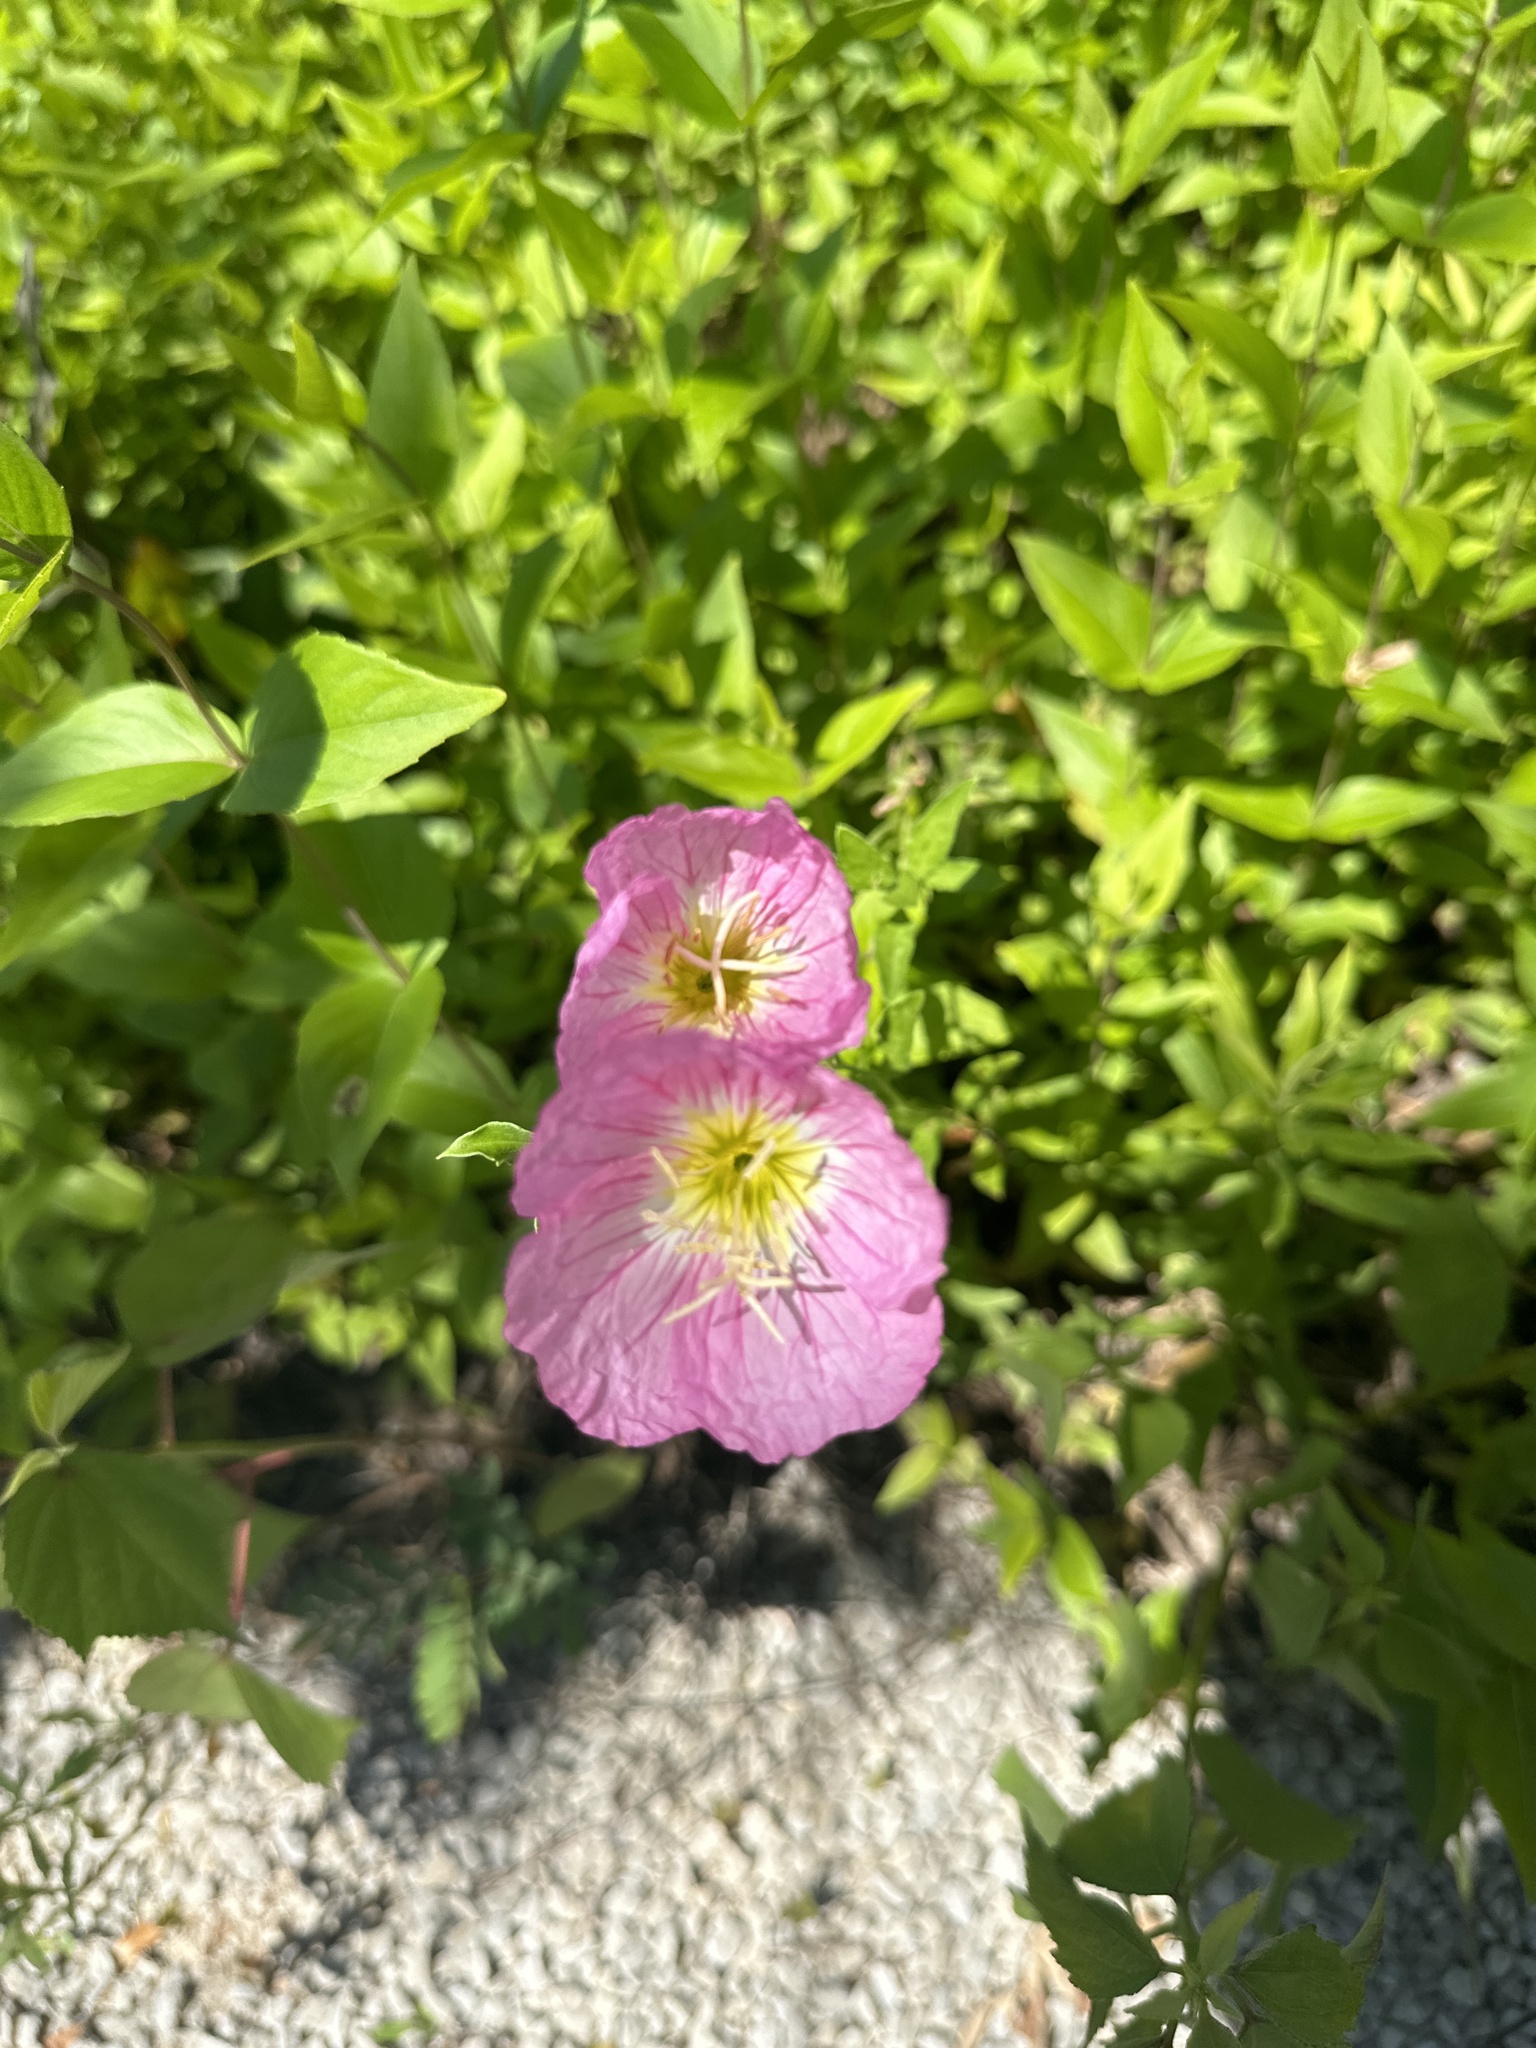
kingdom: Plantae
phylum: Tracheophyta
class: Magnoliopsida
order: Myrtales
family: Onagraceae
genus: Oenothera
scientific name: Oenothera speciosa
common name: White evening-primrose
